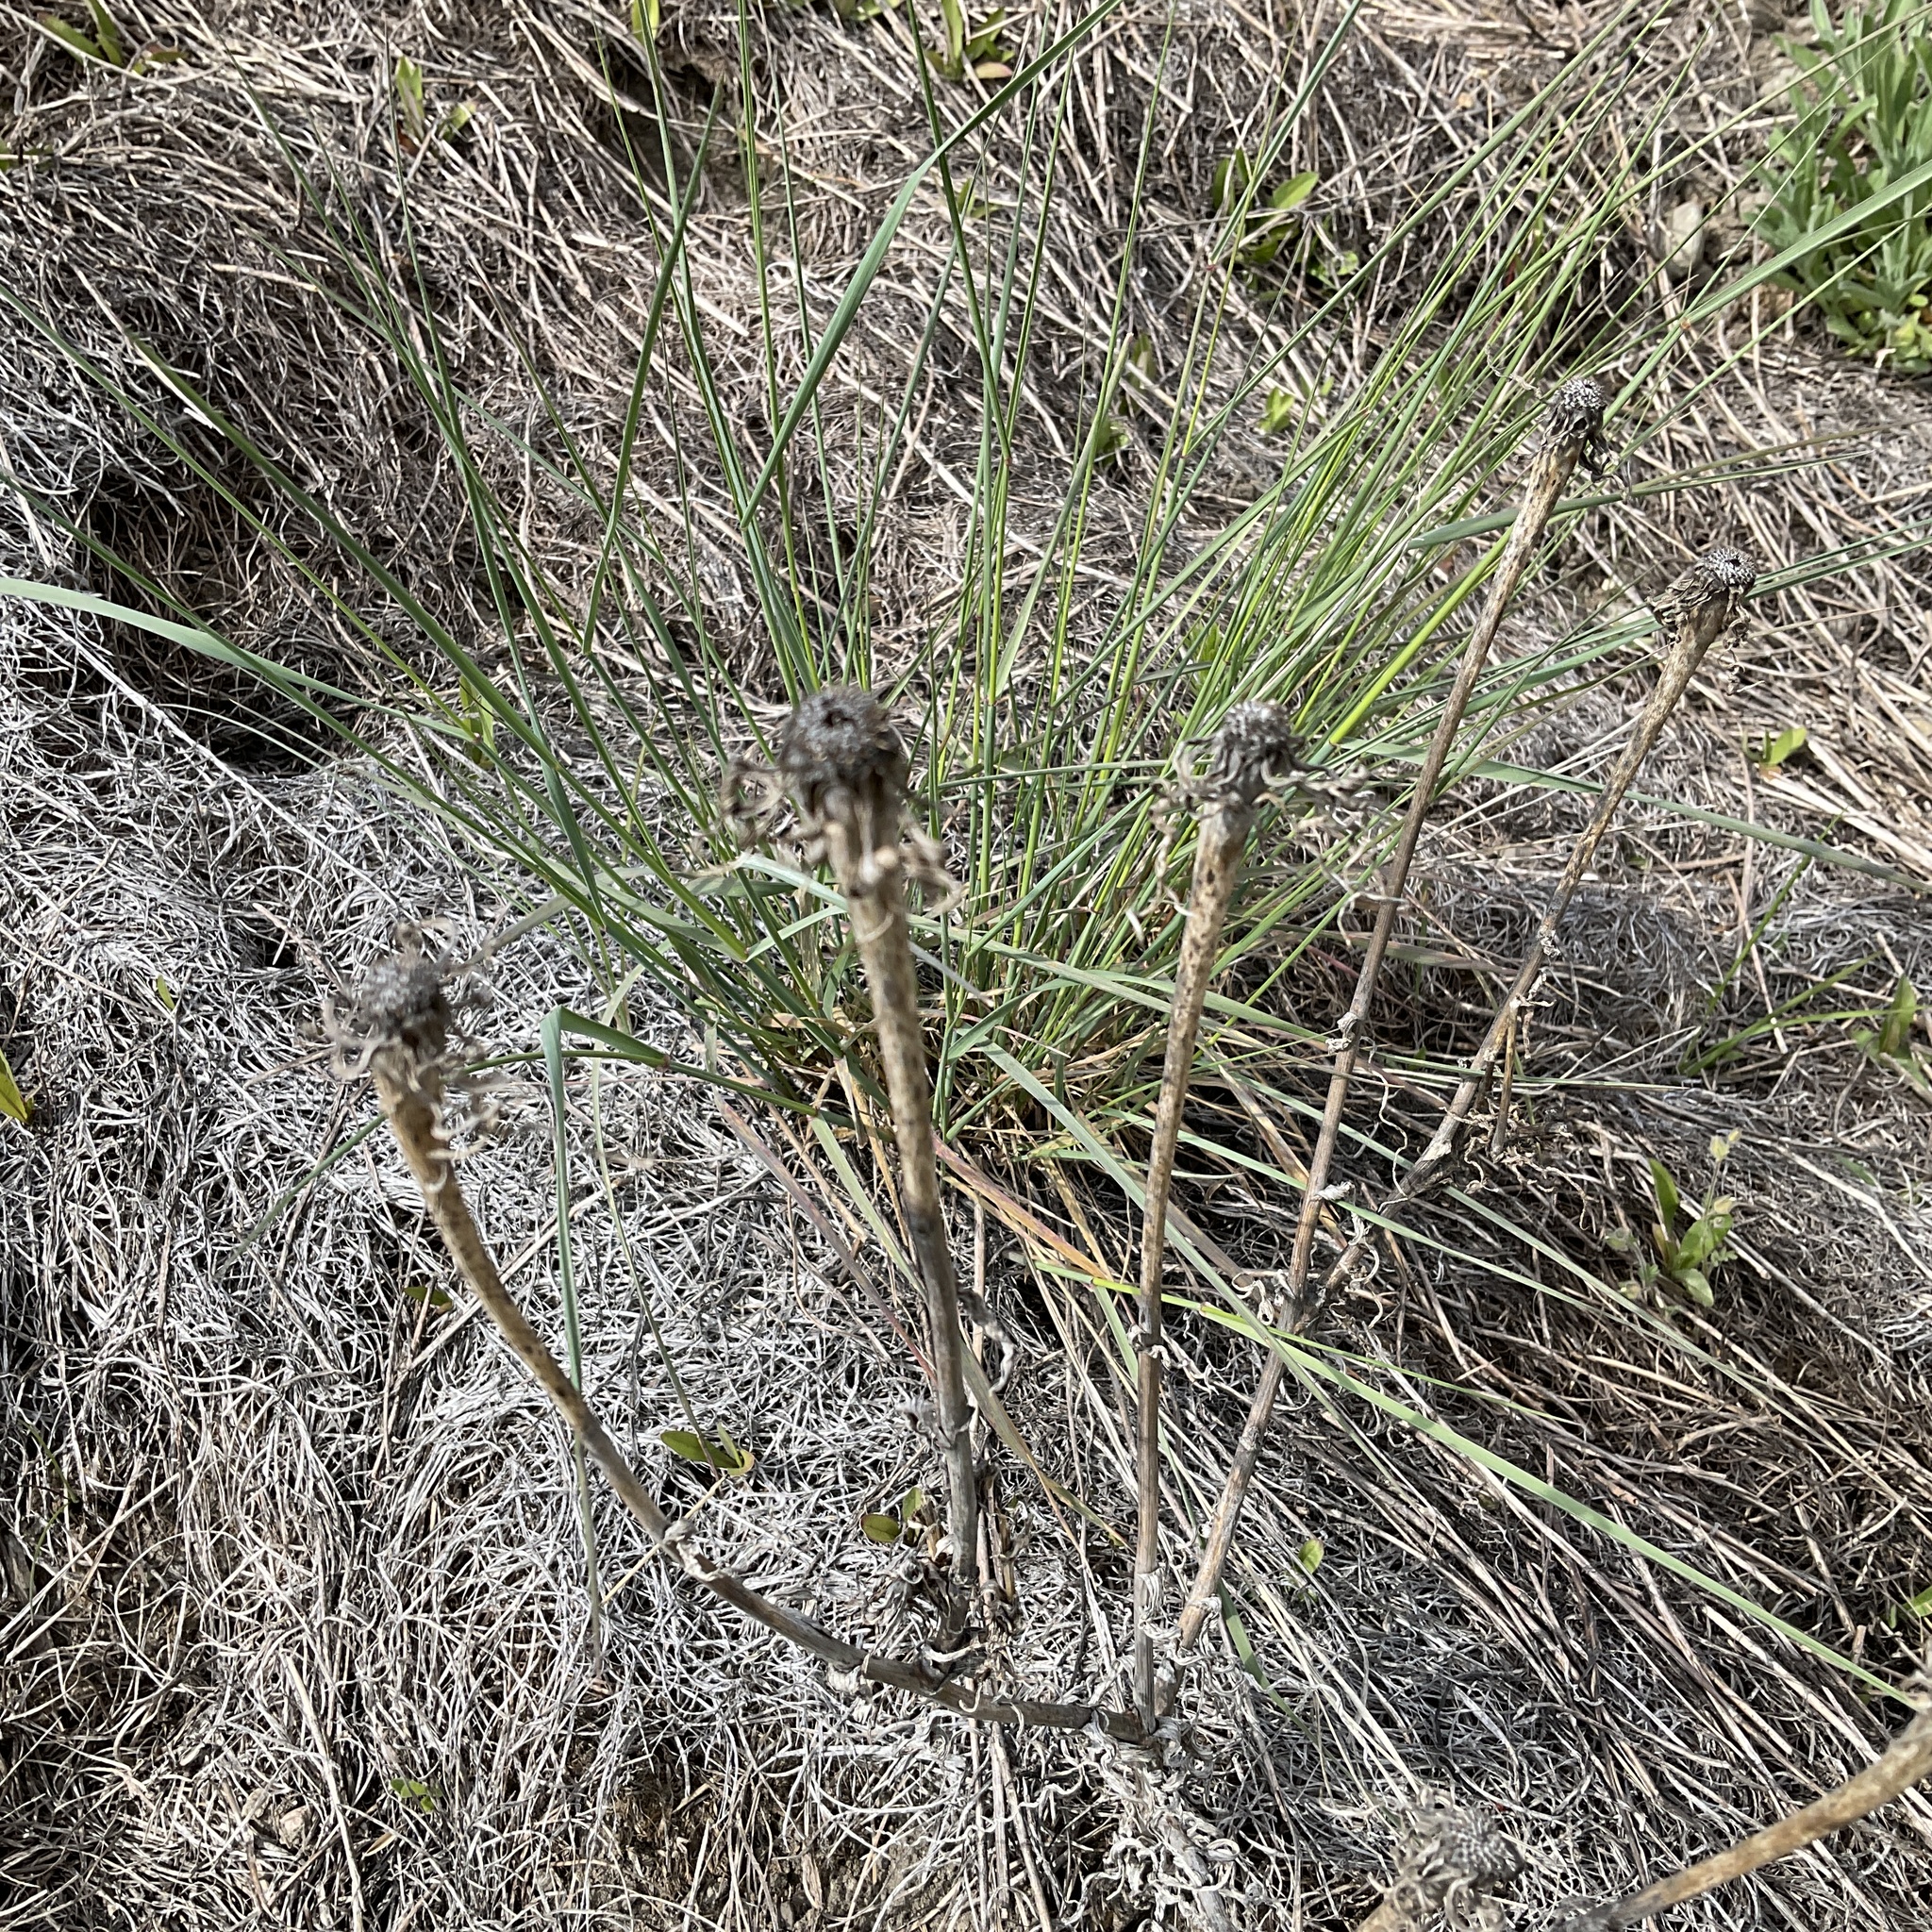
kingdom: Plantae
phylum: Tracheophyta
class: Magnoliopsida
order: Asterales
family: Asteraceae
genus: Tragopogon
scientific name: Tragopogon dubius
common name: Yellow salsify
